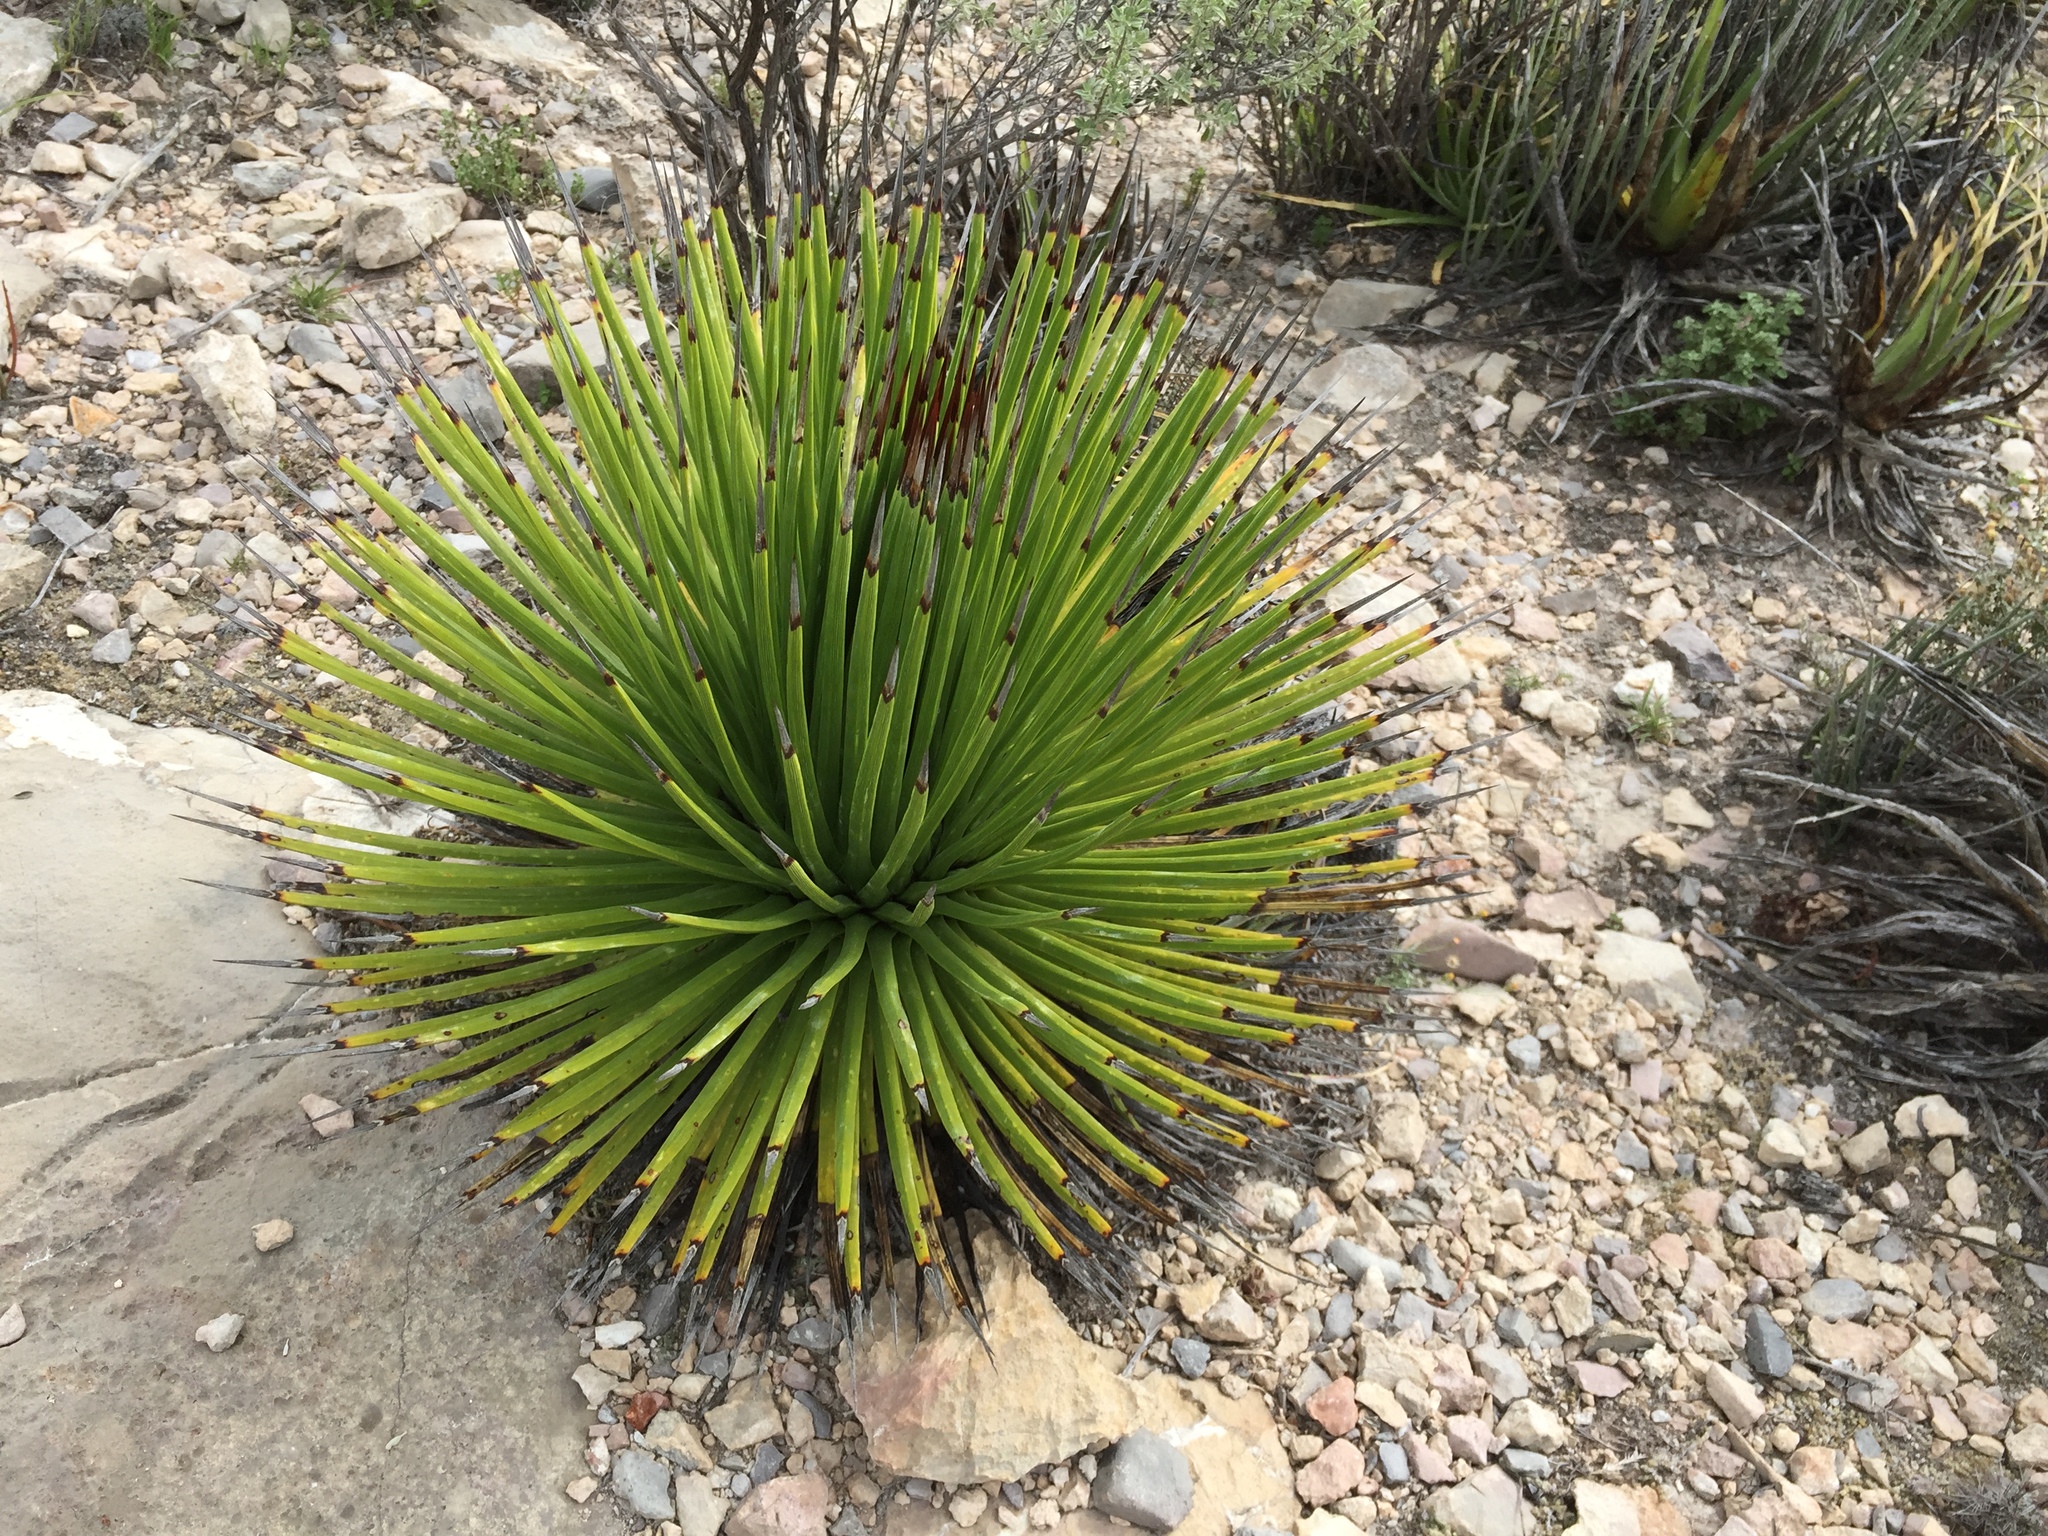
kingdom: Plantae
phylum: Tracheophyta
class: Liliopsida
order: Asparagales
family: Asparagaceae
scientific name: Asparagaceae
